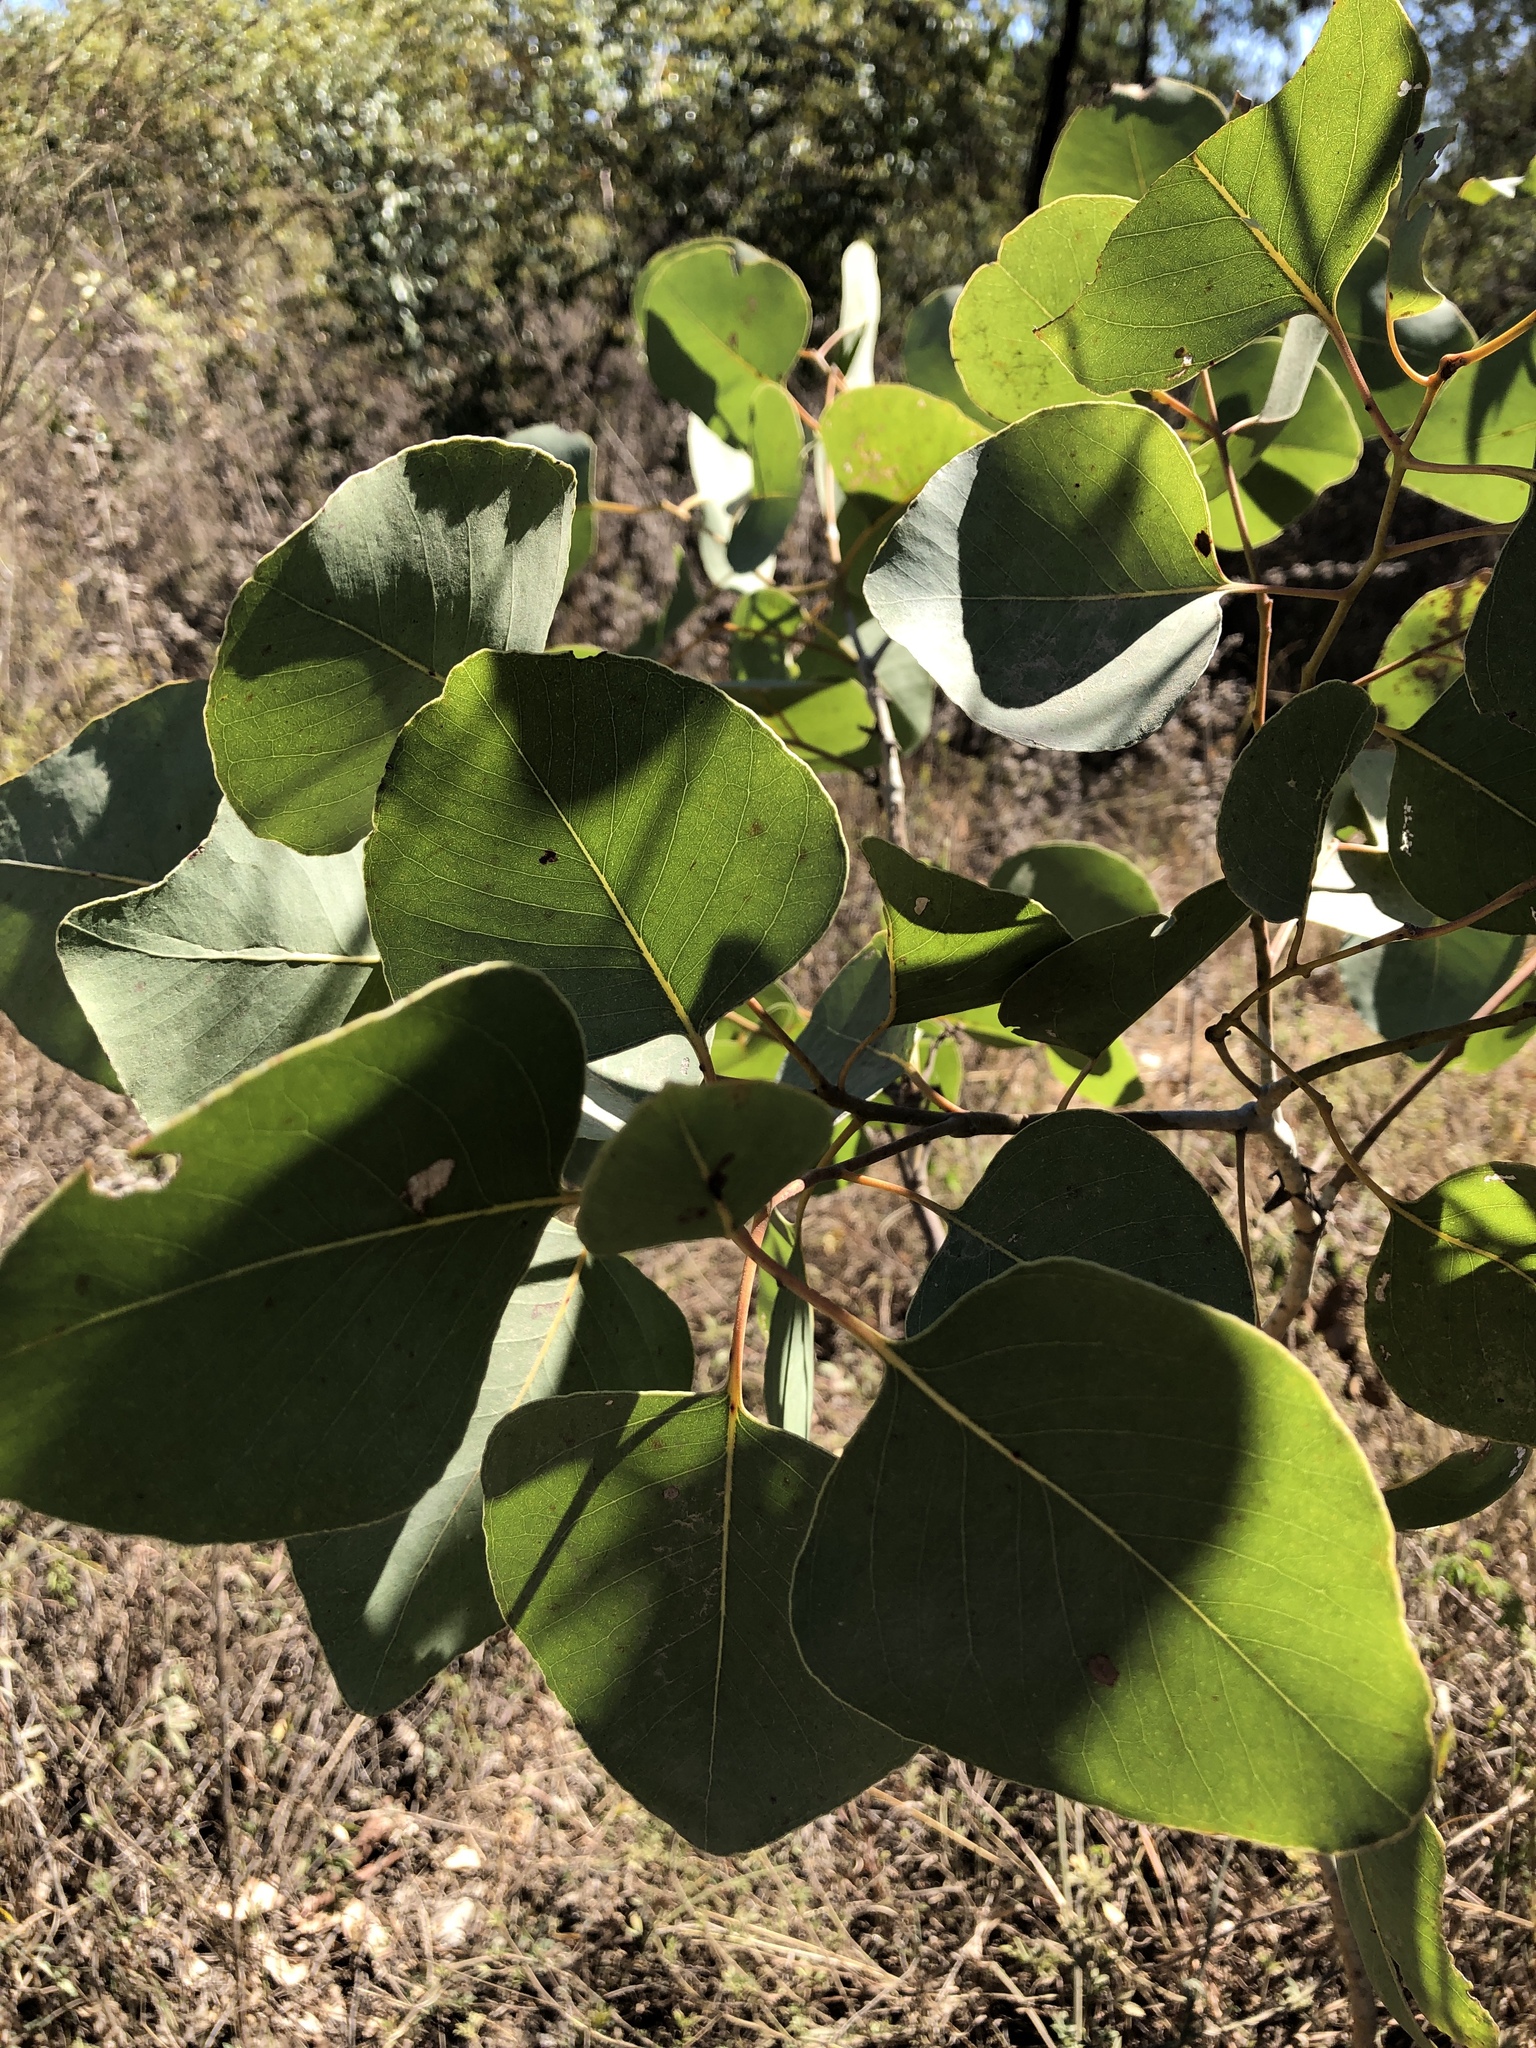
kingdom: Plantae
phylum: Tracheophyta
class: Magnoliopsida
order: Myrtales
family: Myrtaceae
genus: Eucalyptus
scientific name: Eucalyptus platyphylla
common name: Poplar-gum
